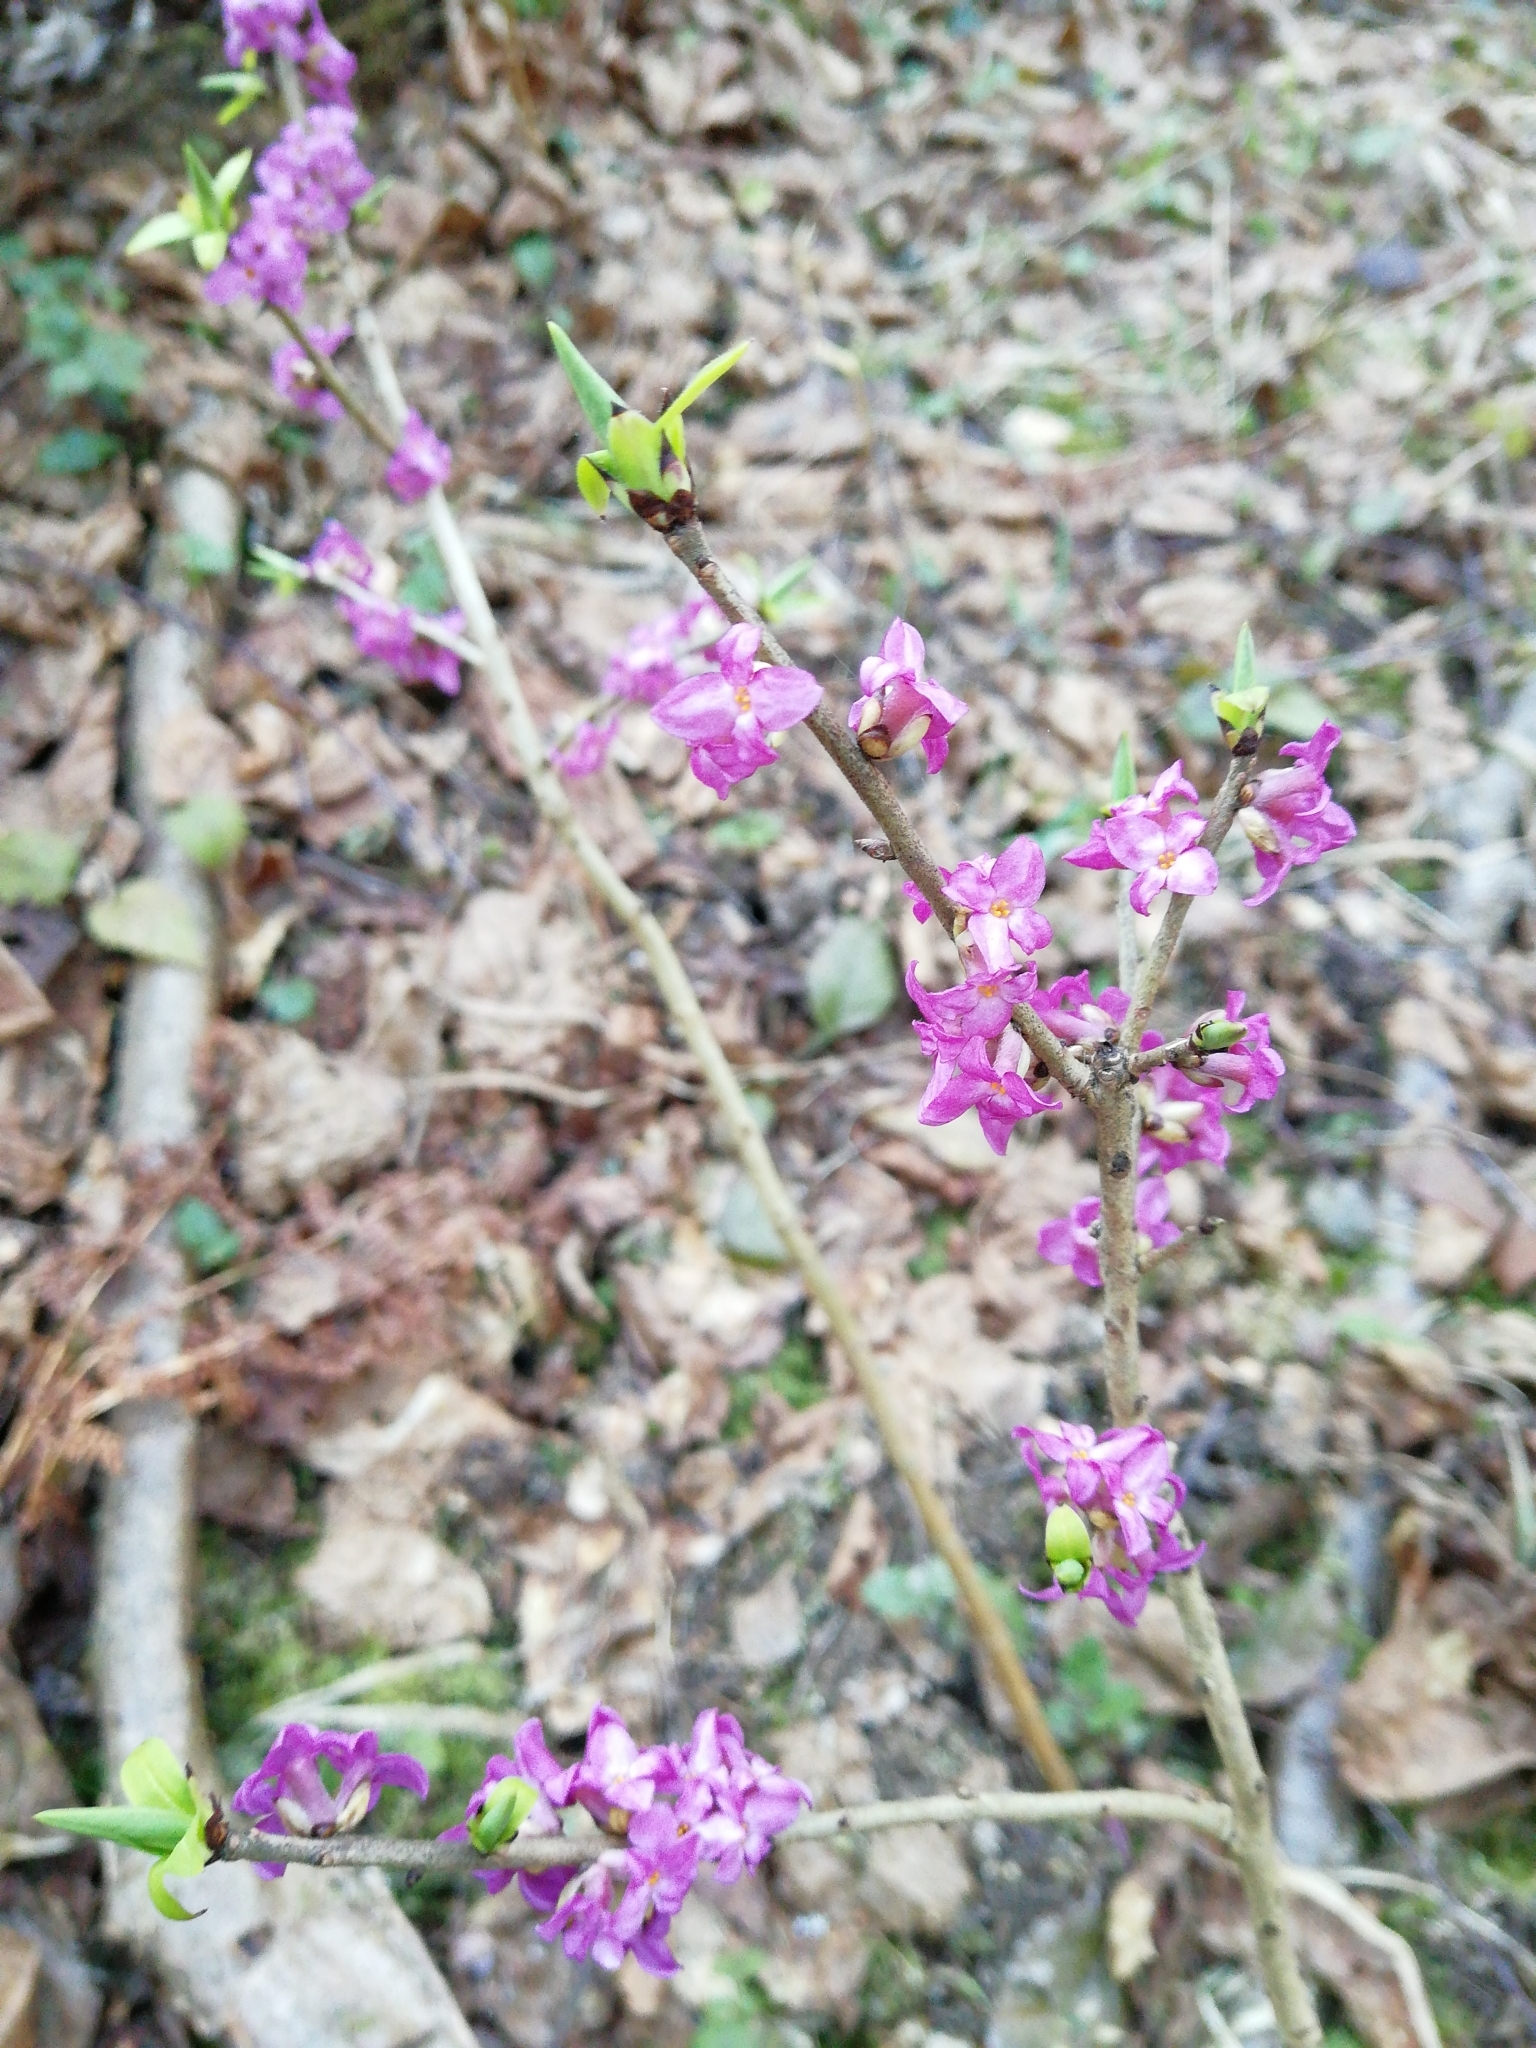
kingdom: Plantae
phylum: Tracheophyta
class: Magnoliopsida
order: Malvales
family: Thymelaeaceae
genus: Daphne
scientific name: Daphne mezereum
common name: Mezereon
